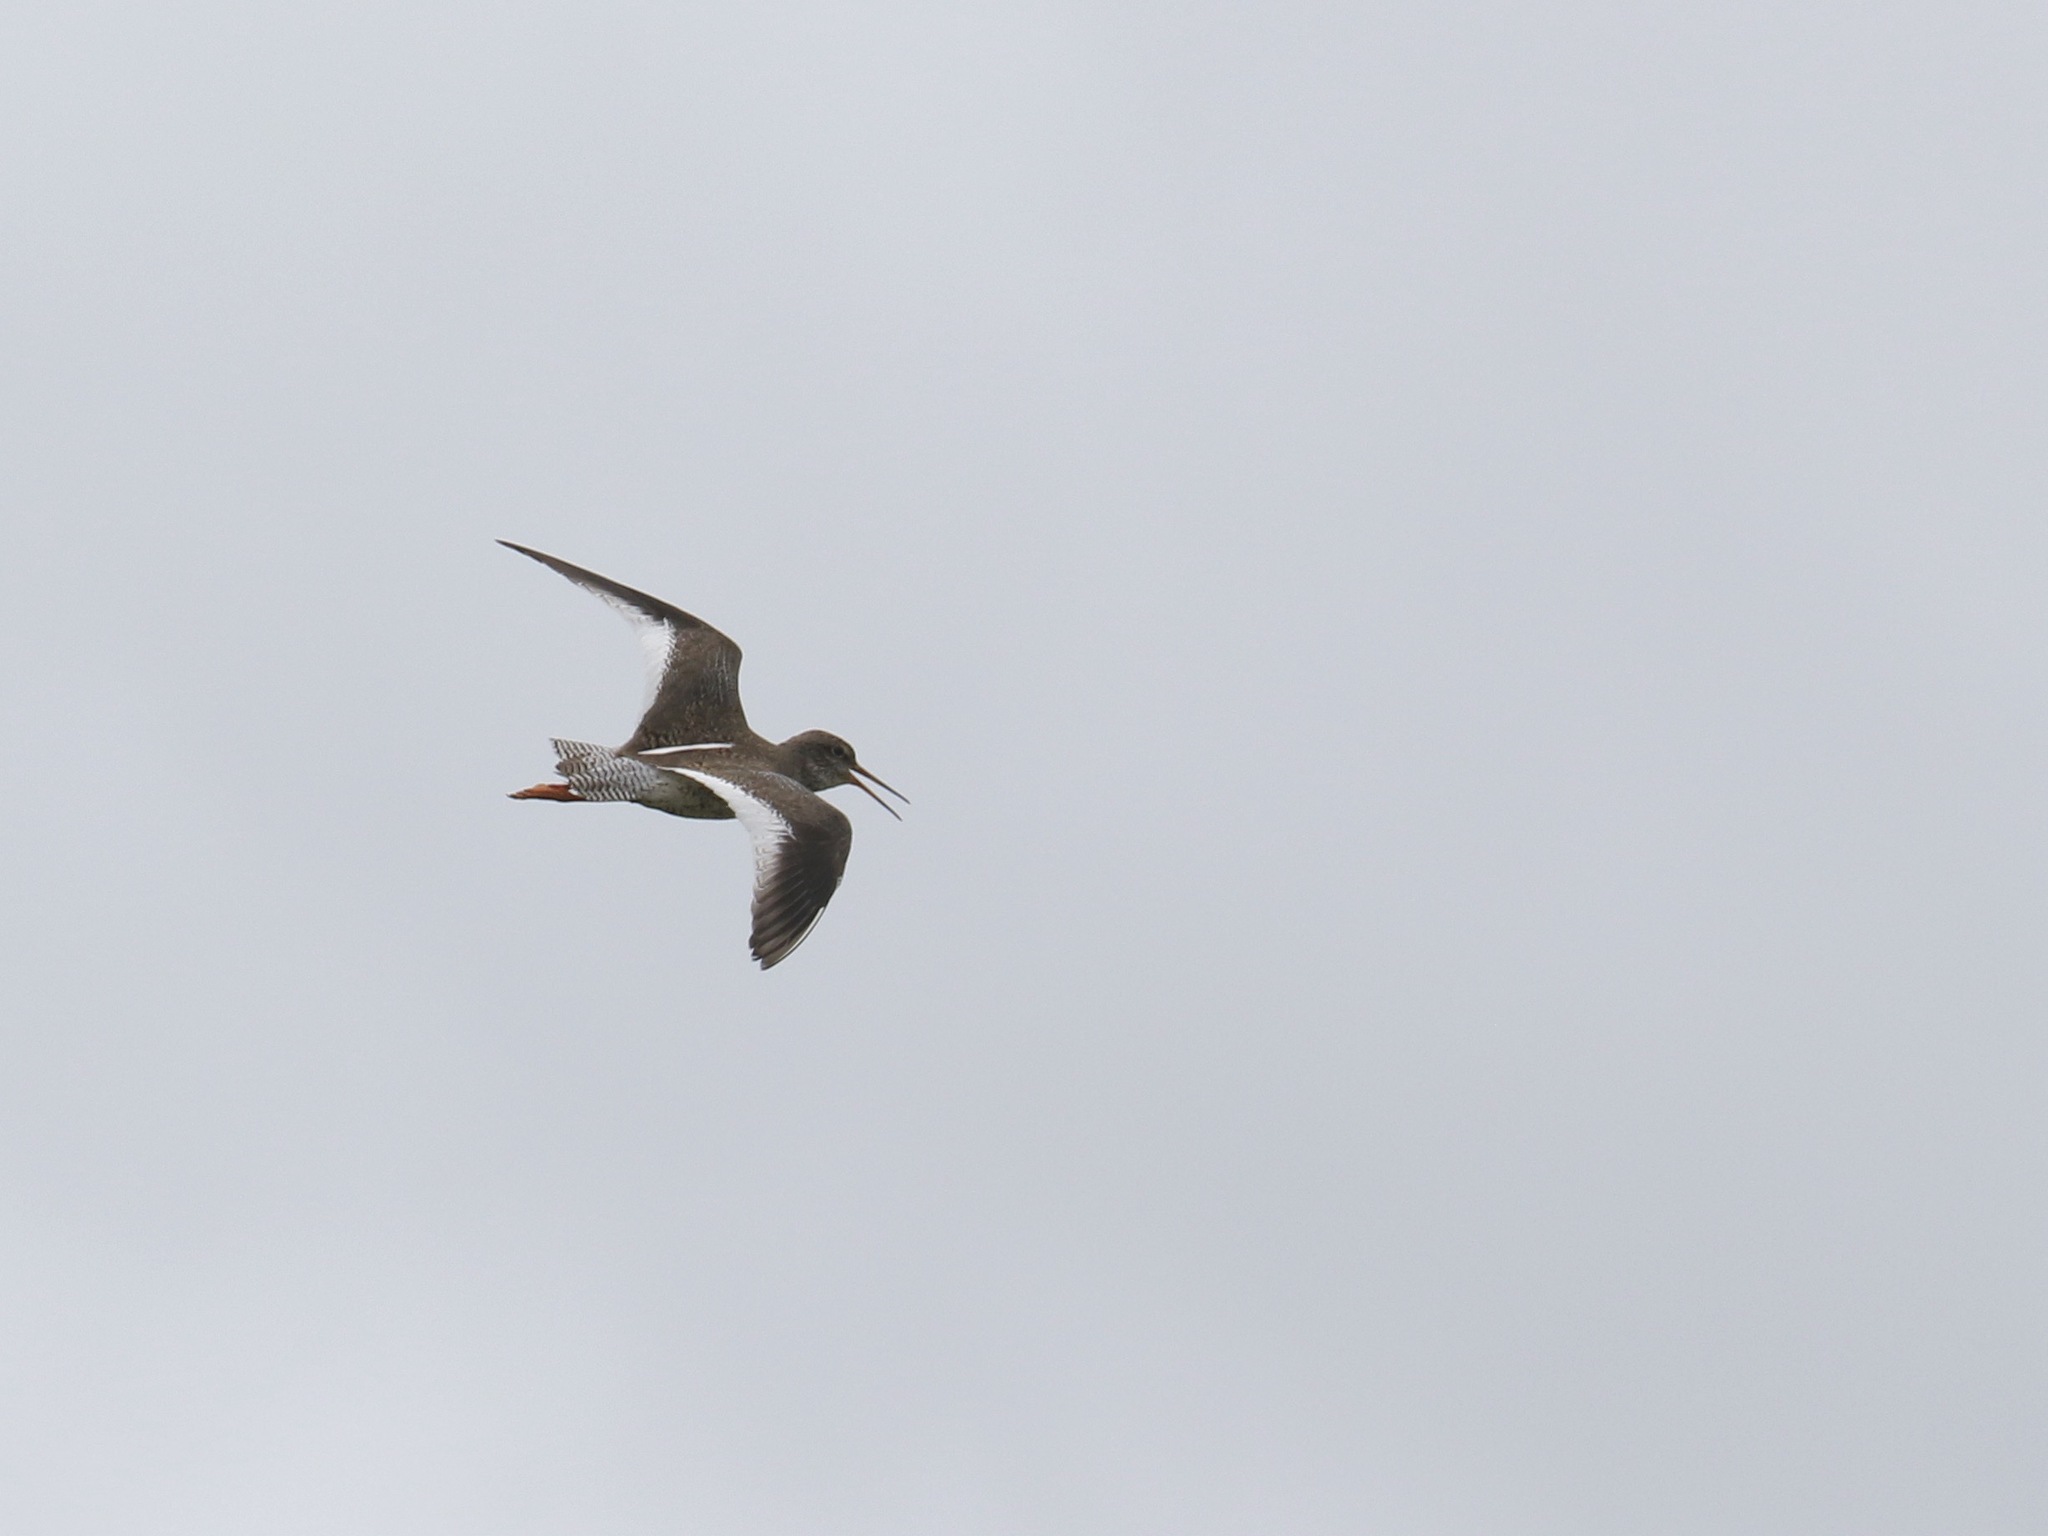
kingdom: Animalia
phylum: Chordata
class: Aves
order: Charadriiformes
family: Scolopacidae
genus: Tringa
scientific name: Tringa totanus
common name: Common redshank
